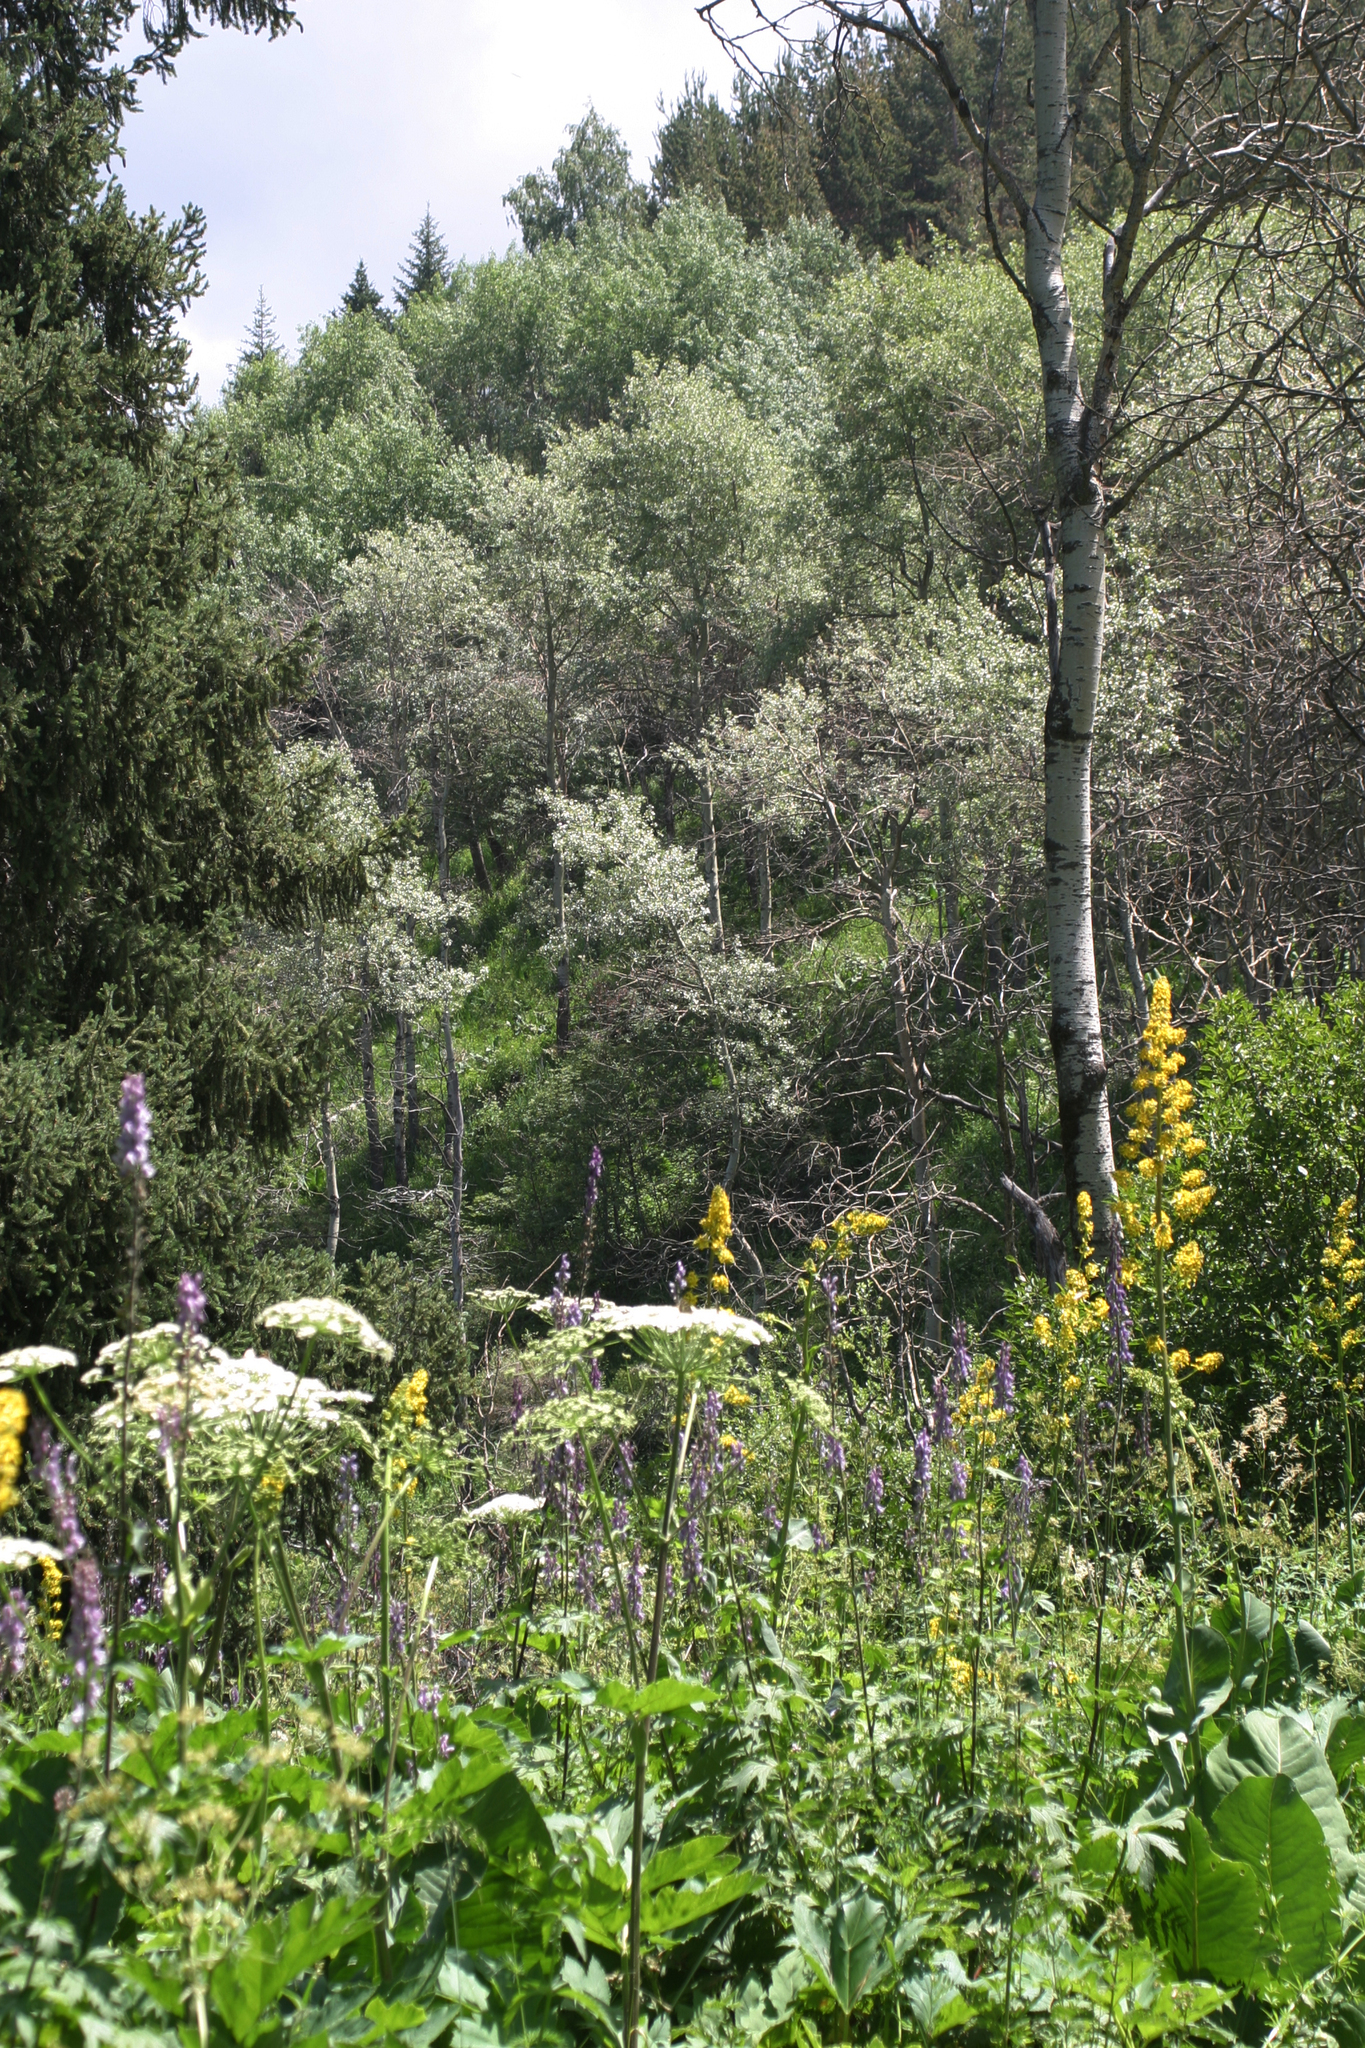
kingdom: Plantae
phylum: Tracheophyta
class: Magnoliopsida
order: Malpighiales
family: Salicaceae
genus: Populus
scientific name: Populus tremula
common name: European aspen
